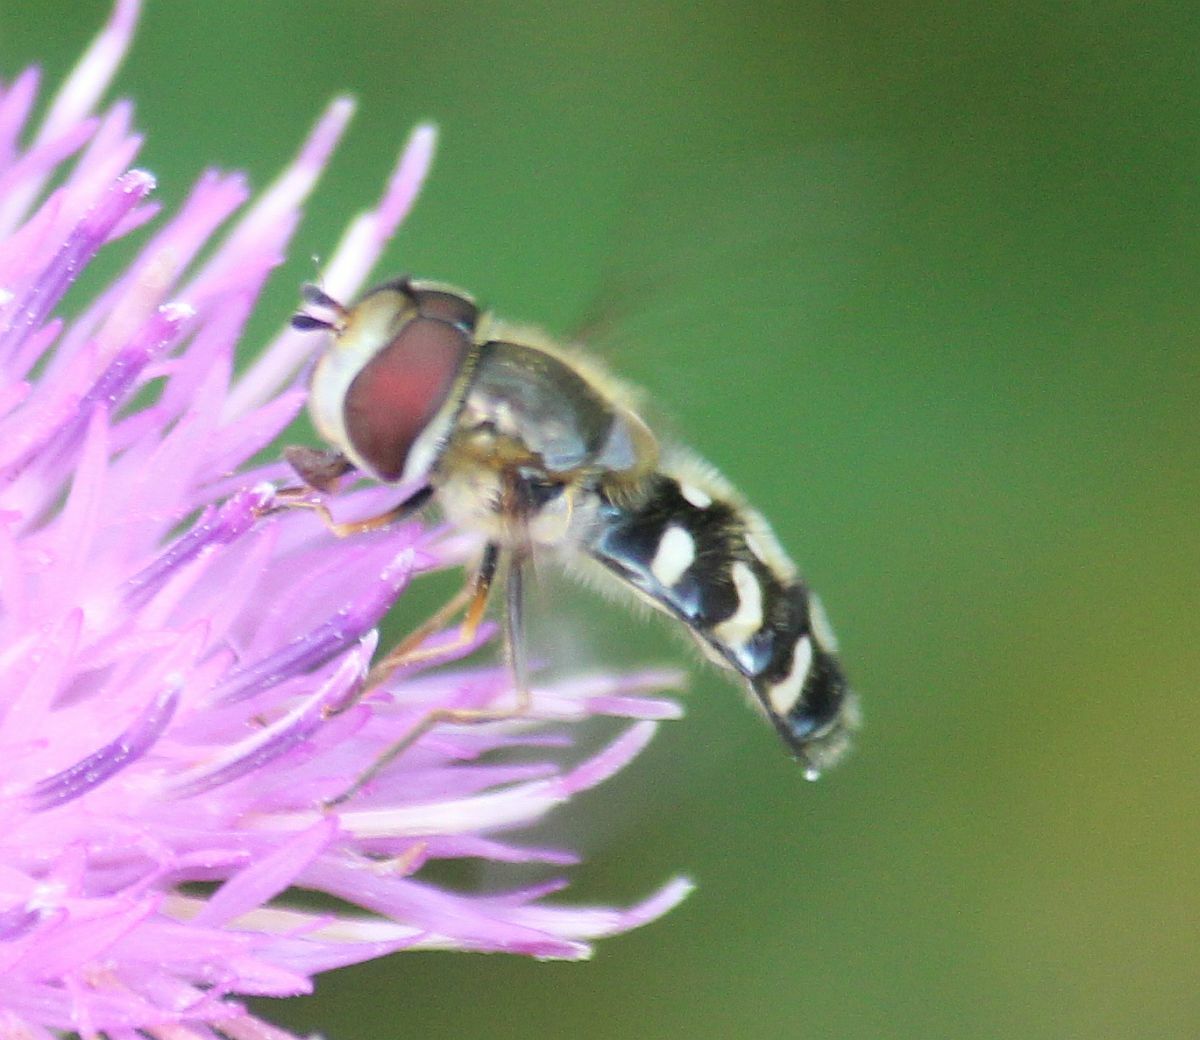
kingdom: Animalia
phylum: Arthropoda
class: Insecta
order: Diptera
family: Syrphidae
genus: Scaeva
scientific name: Scaeva pyrastri
